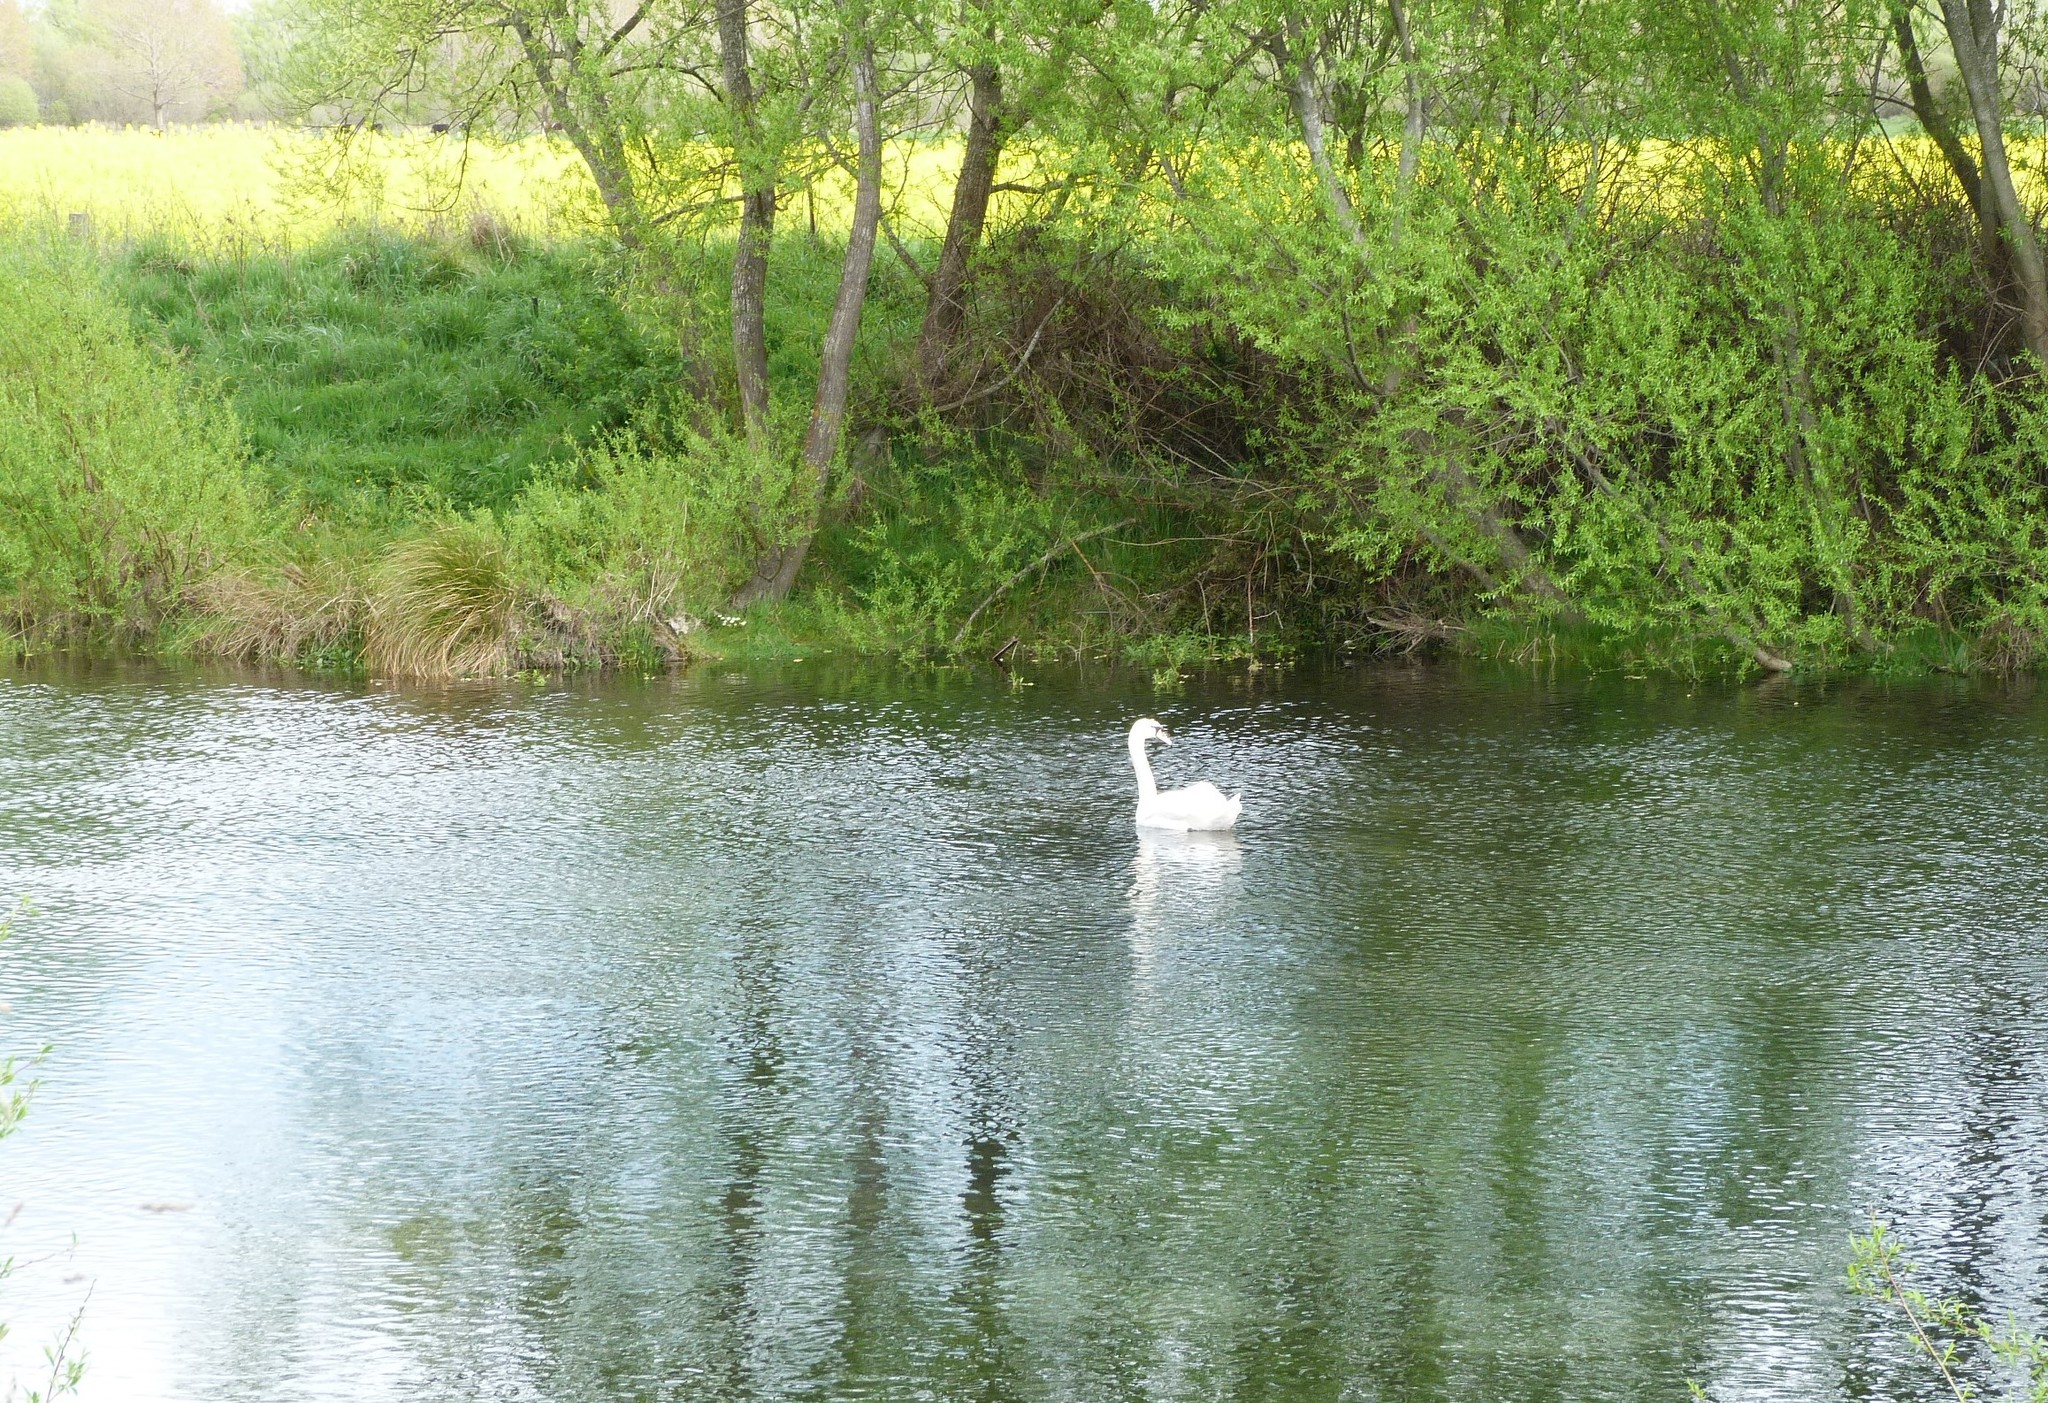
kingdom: Animalia
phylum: Chordata
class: Aves
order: Anseriformes
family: Anatidae
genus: Cygnus
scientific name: Cygnus olor
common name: Mute swan
